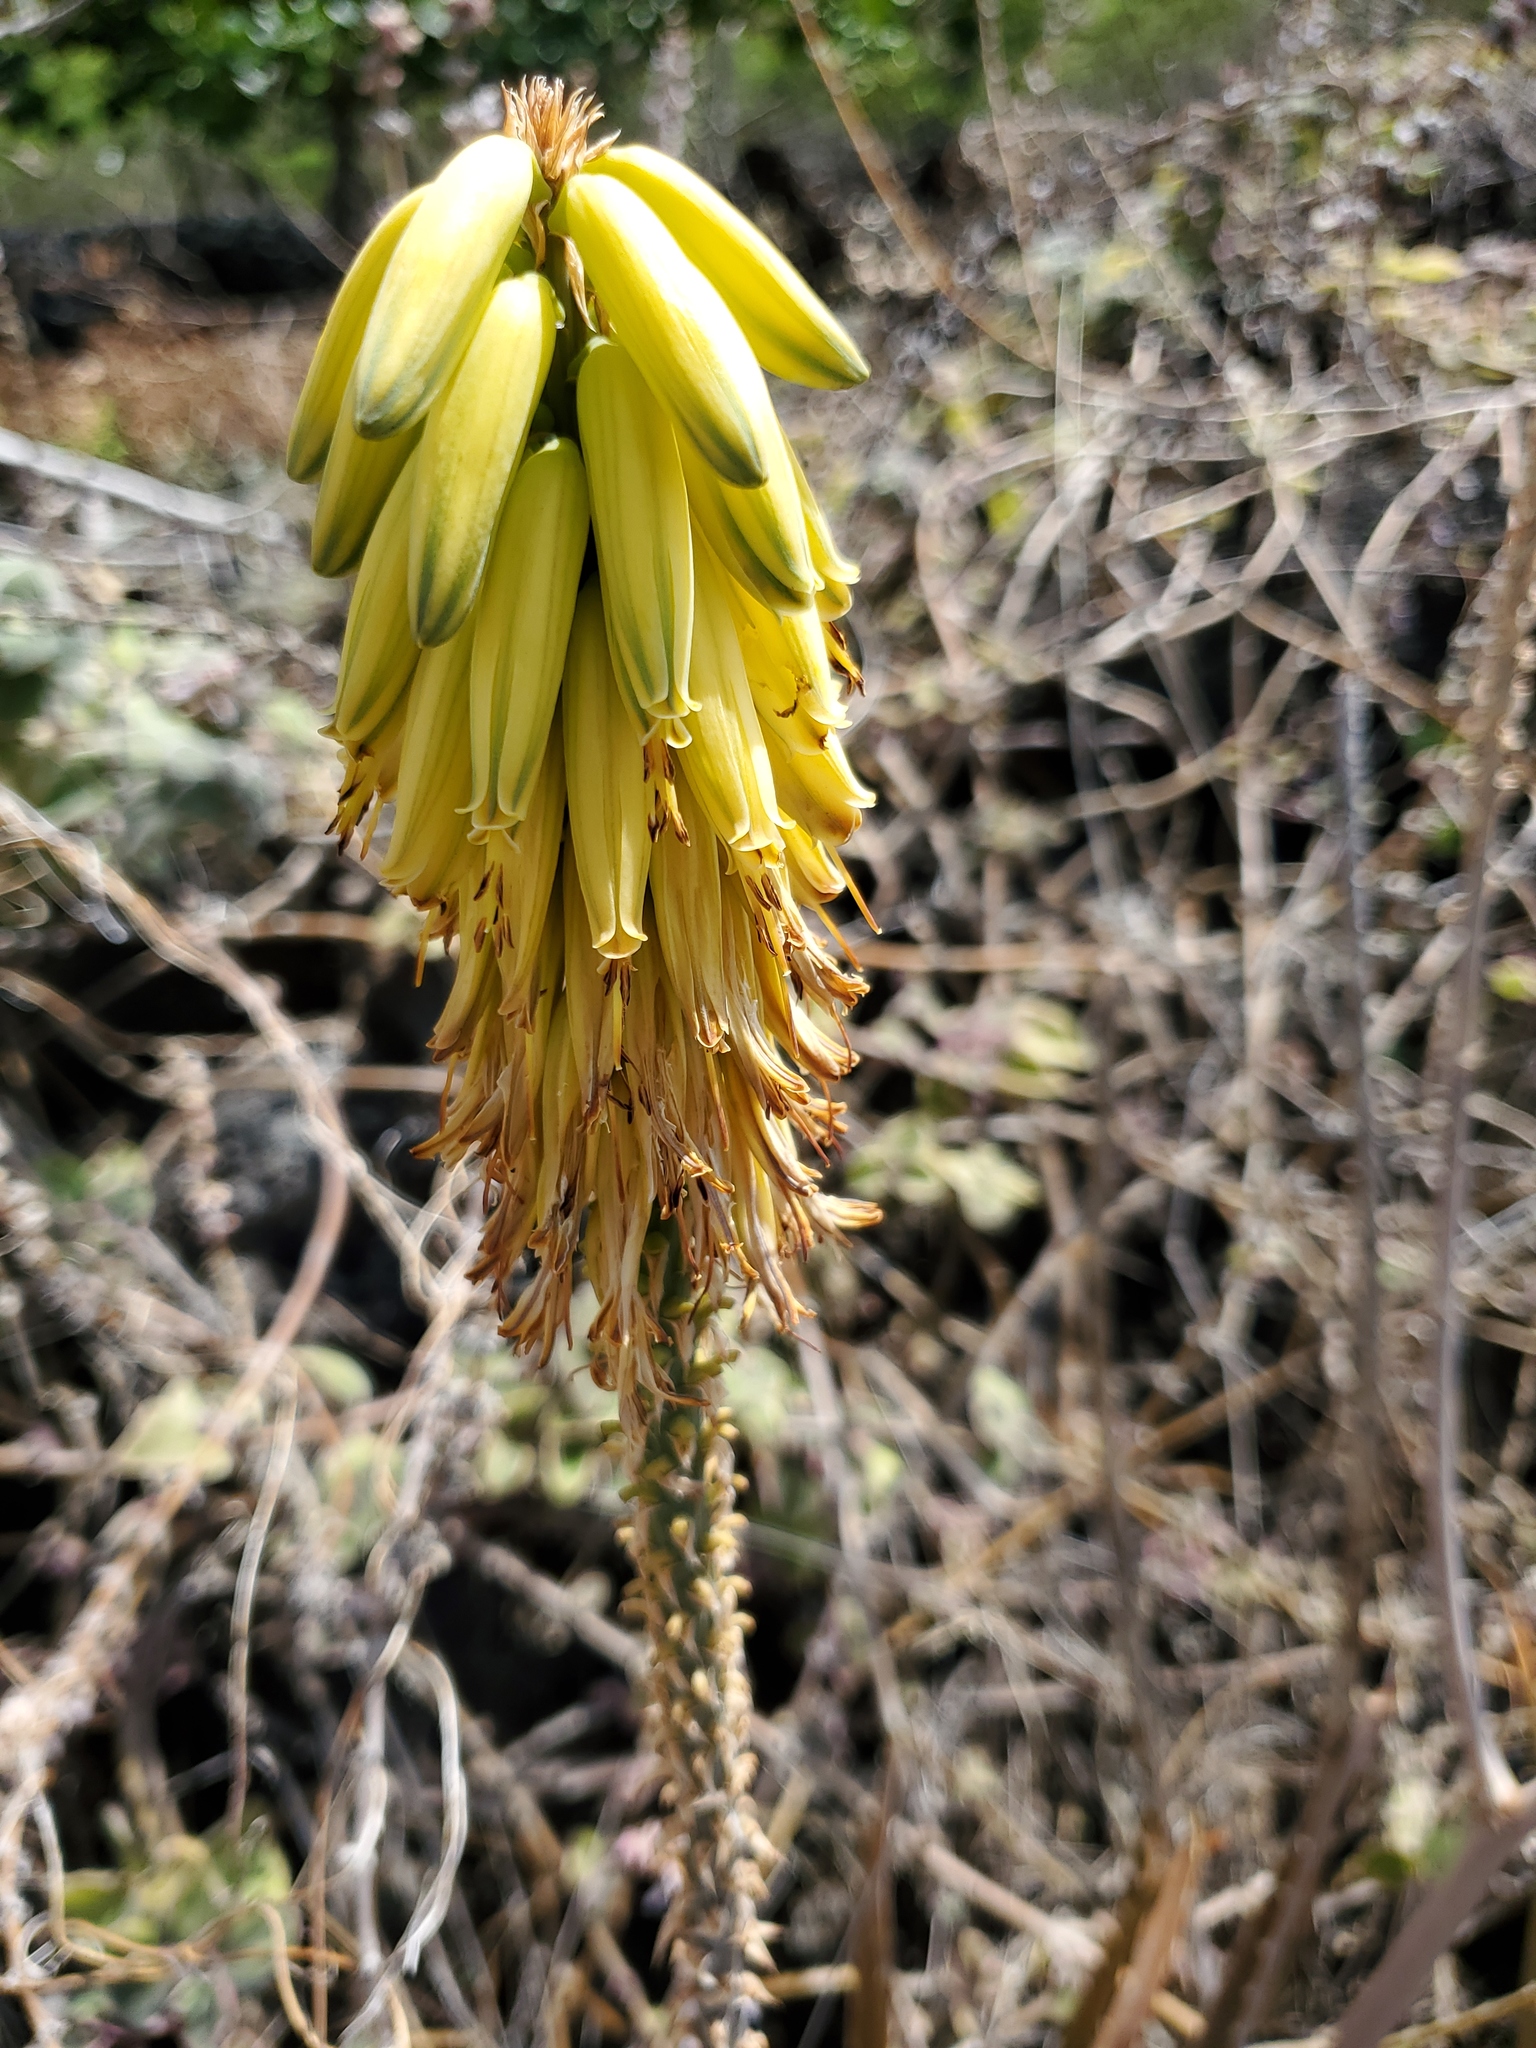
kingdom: Plantae
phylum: Tracheophyta
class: Liliopsida
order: Asparagales
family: Asphodelaceae
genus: Aloe
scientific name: Aloe vera
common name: Barbados aloe
